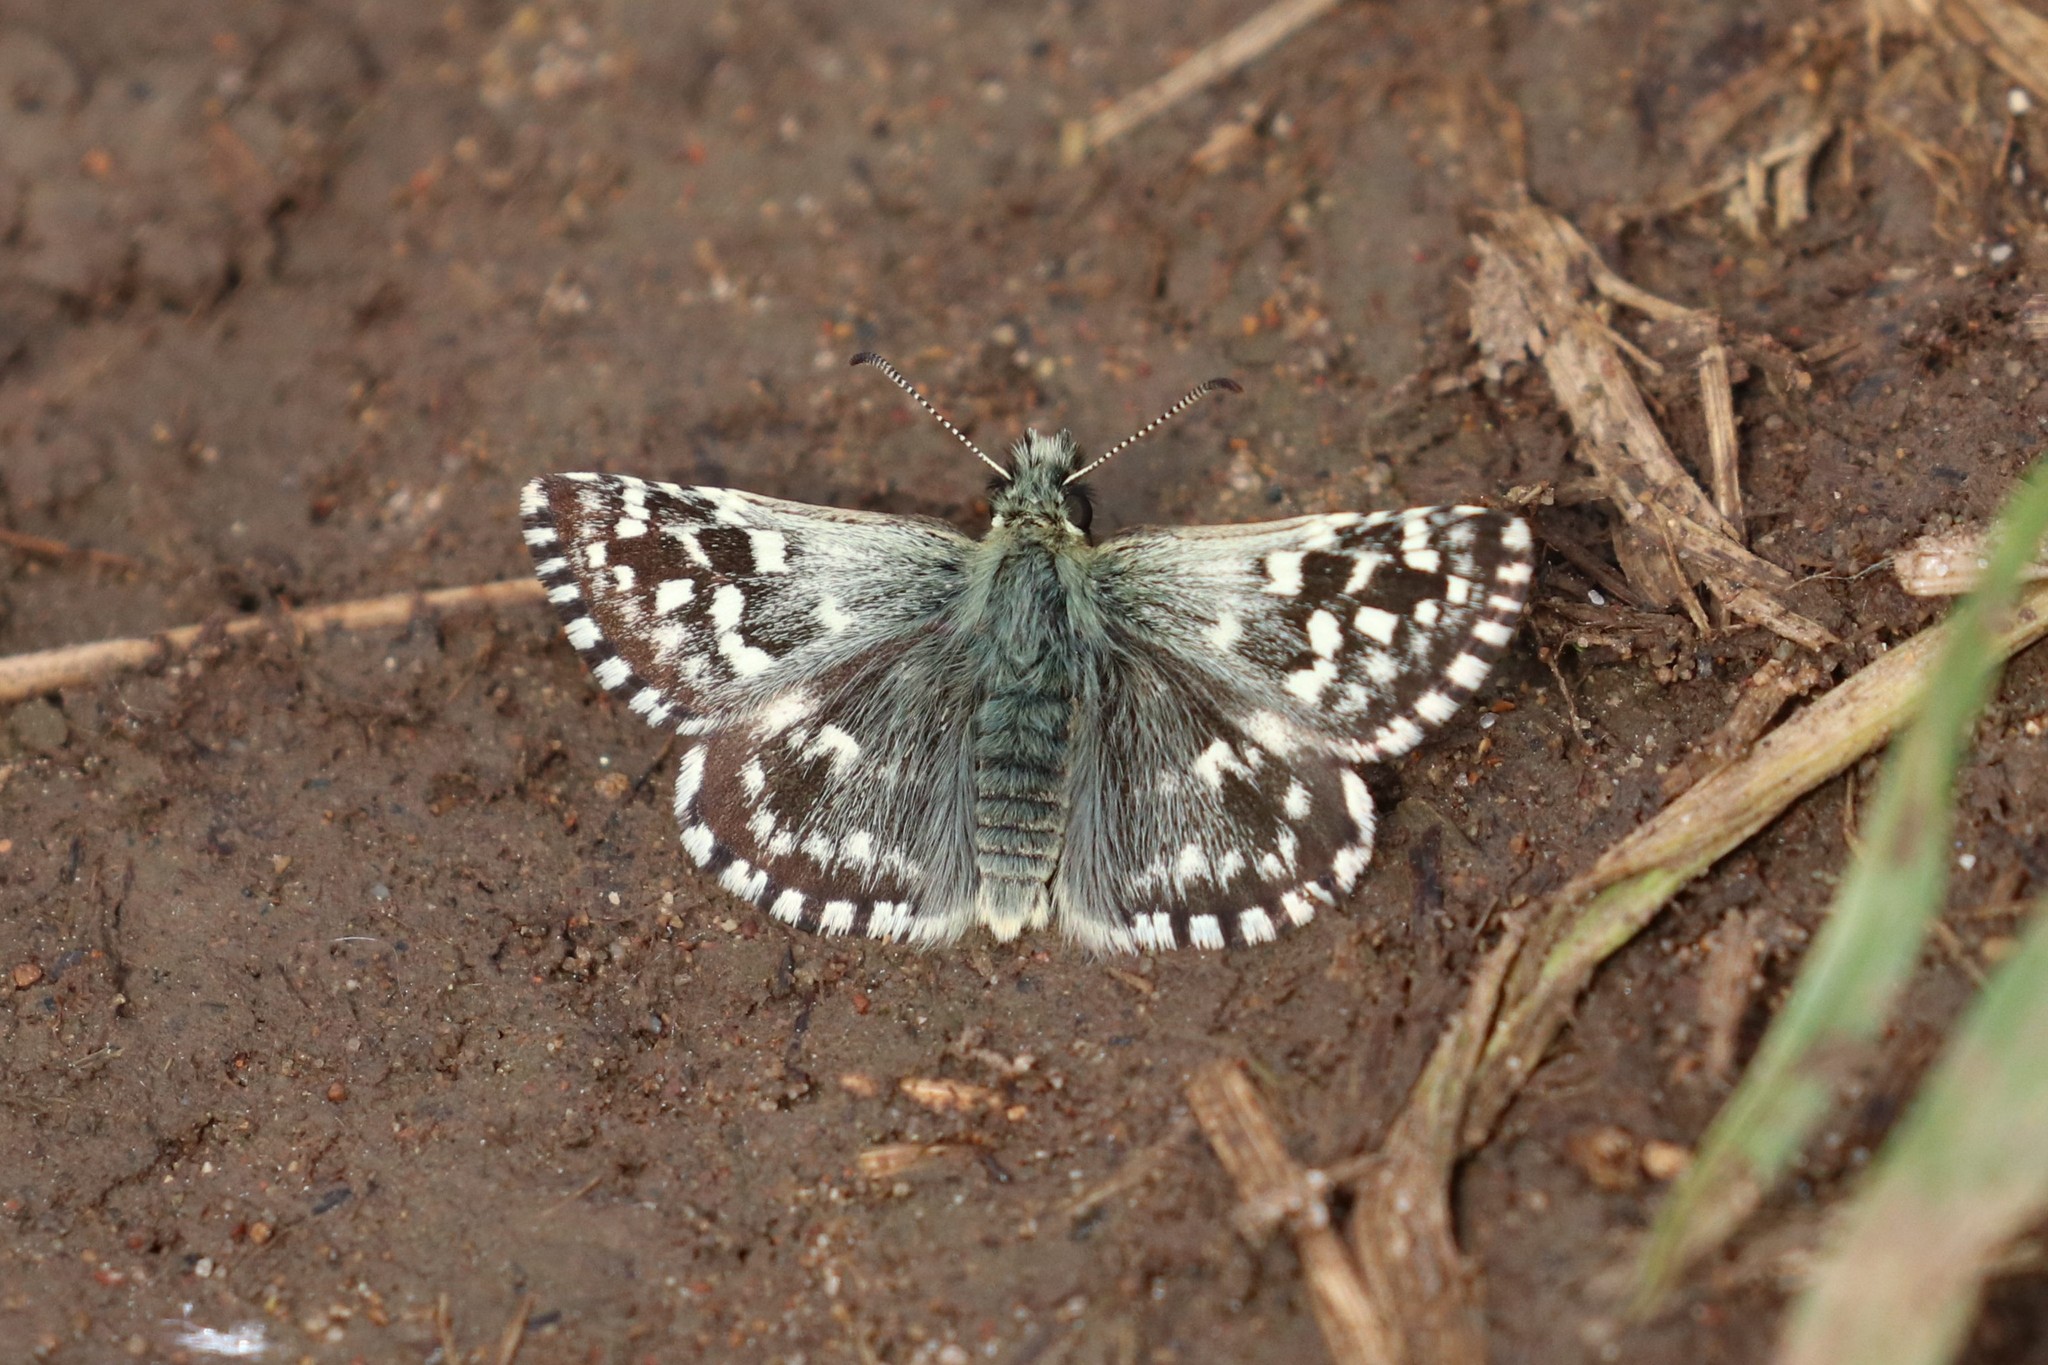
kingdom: Animalia
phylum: Arthropoda
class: Insecta
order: Lepidoptera
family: Hesperiidae
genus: Pyrgus
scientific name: Pyrgus malvae
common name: Grizzled skipper
